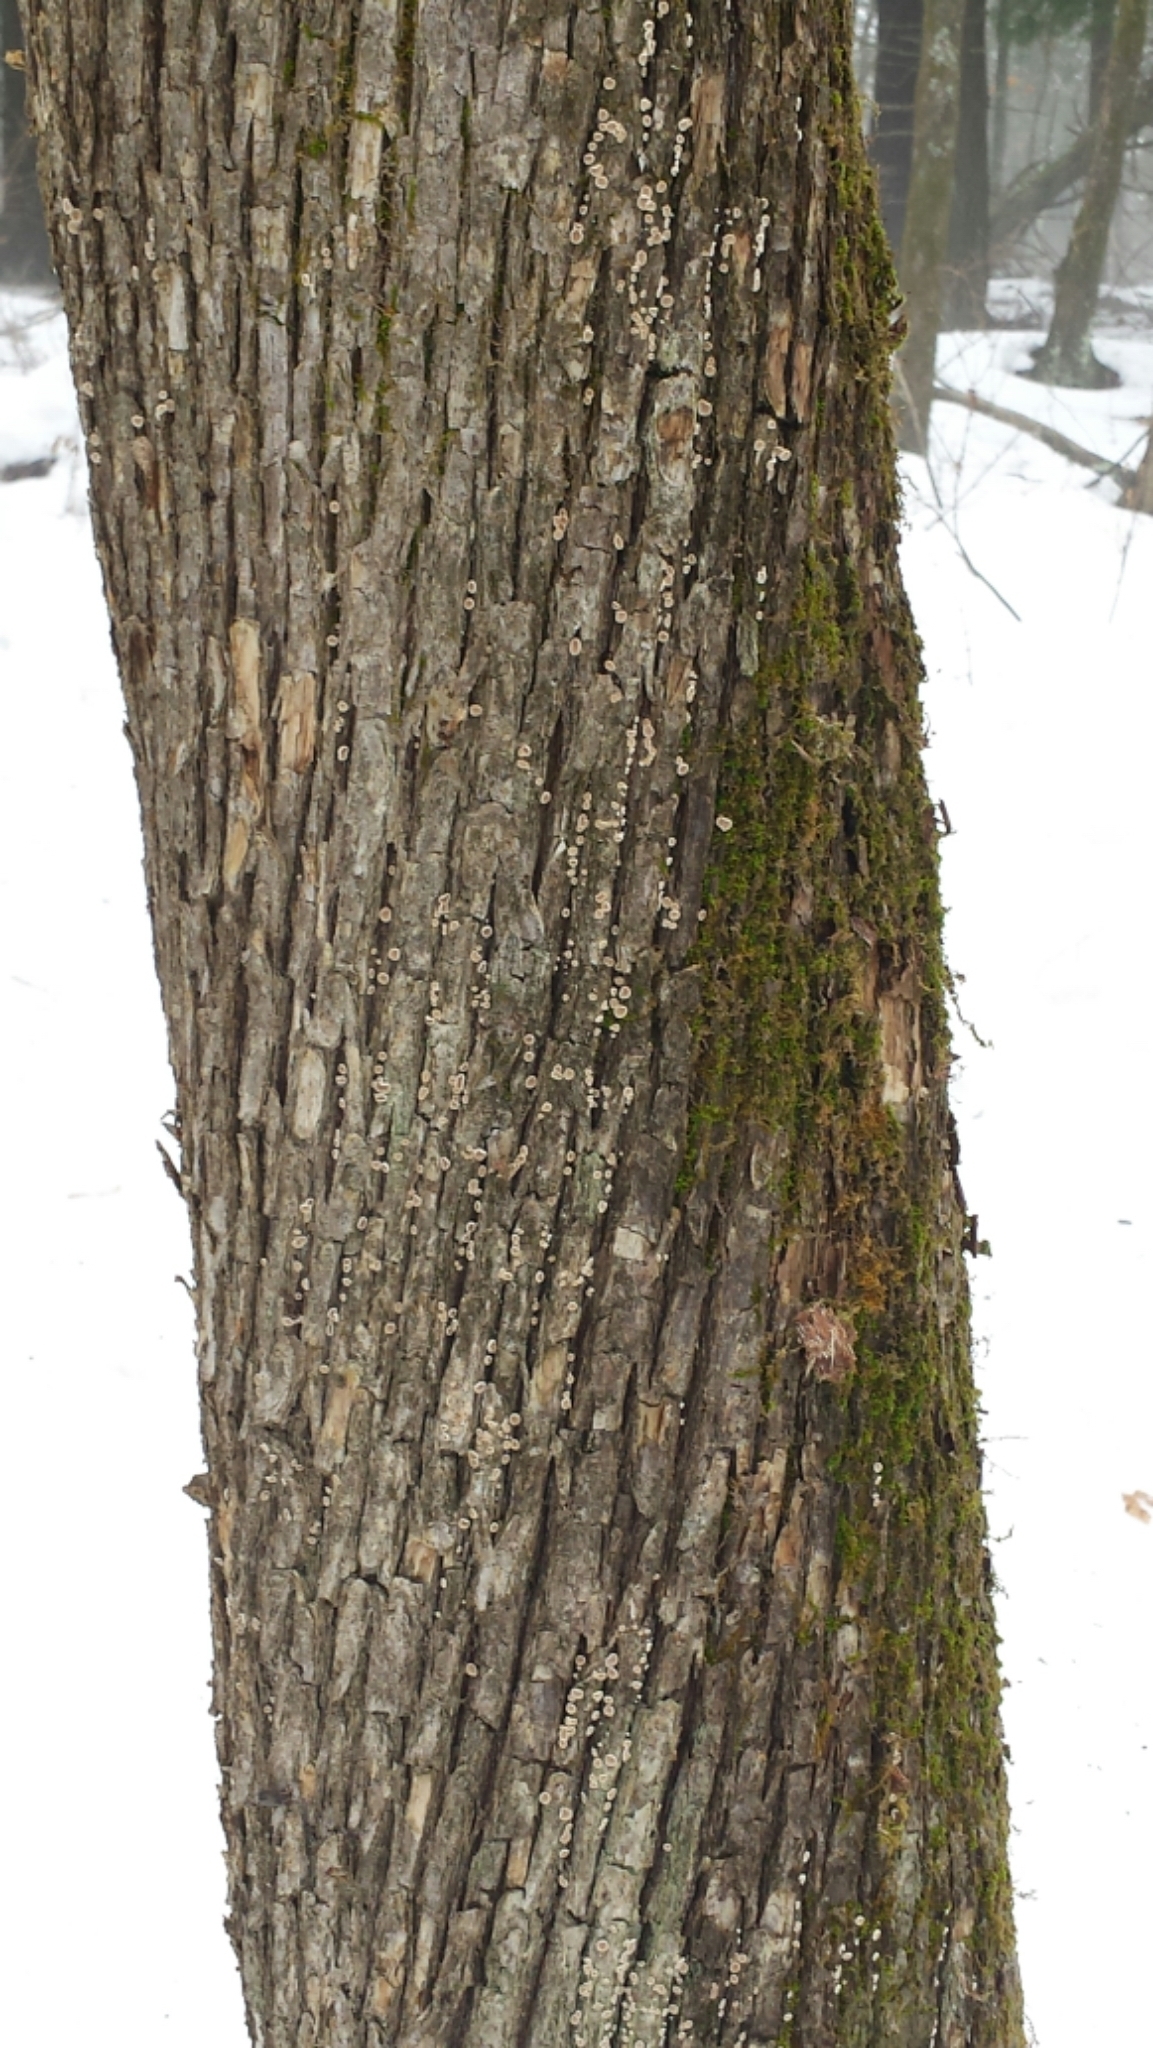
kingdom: Plantae
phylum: Tracheophyta
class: Magnoliopsida
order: Fagales
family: Betulaceae
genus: Ostrya
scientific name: Ostrya virginiana
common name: Ironwood
